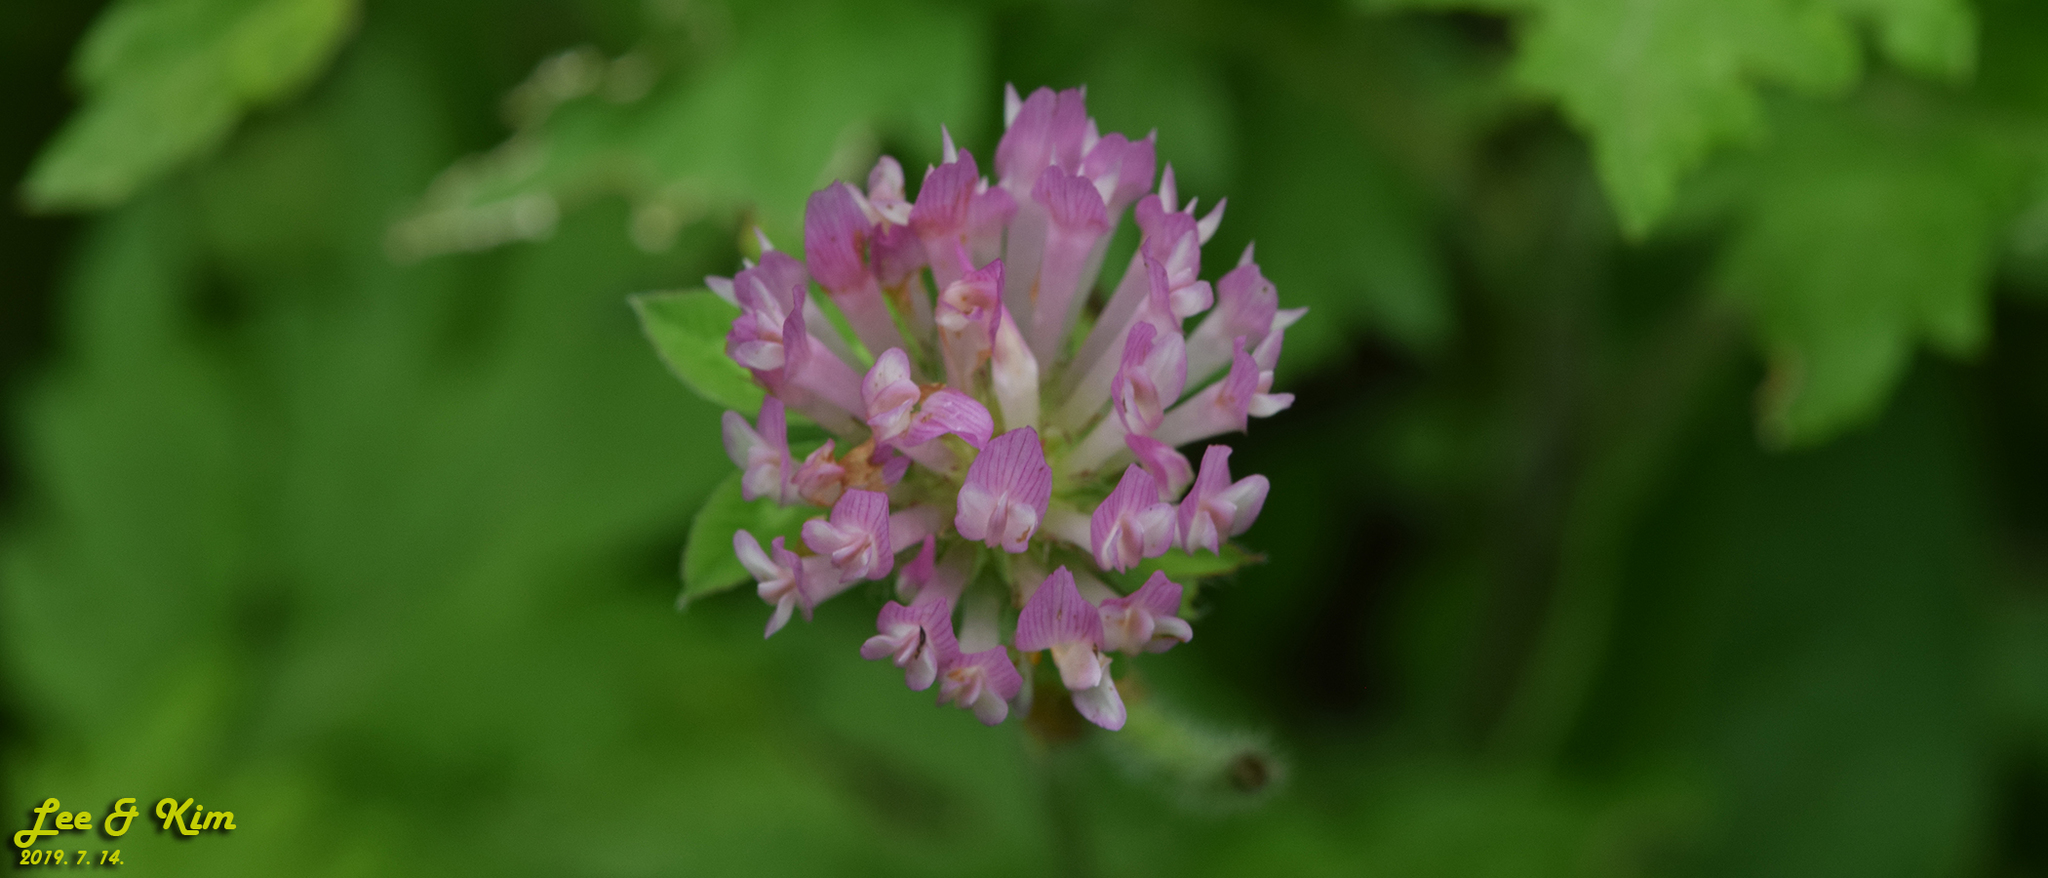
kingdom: Plantae
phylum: Tracheophyta
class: Magnoliopsida
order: Fabales
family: Fabaceae
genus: Trifolium
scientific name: Trifolium pratense
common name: Red clover
